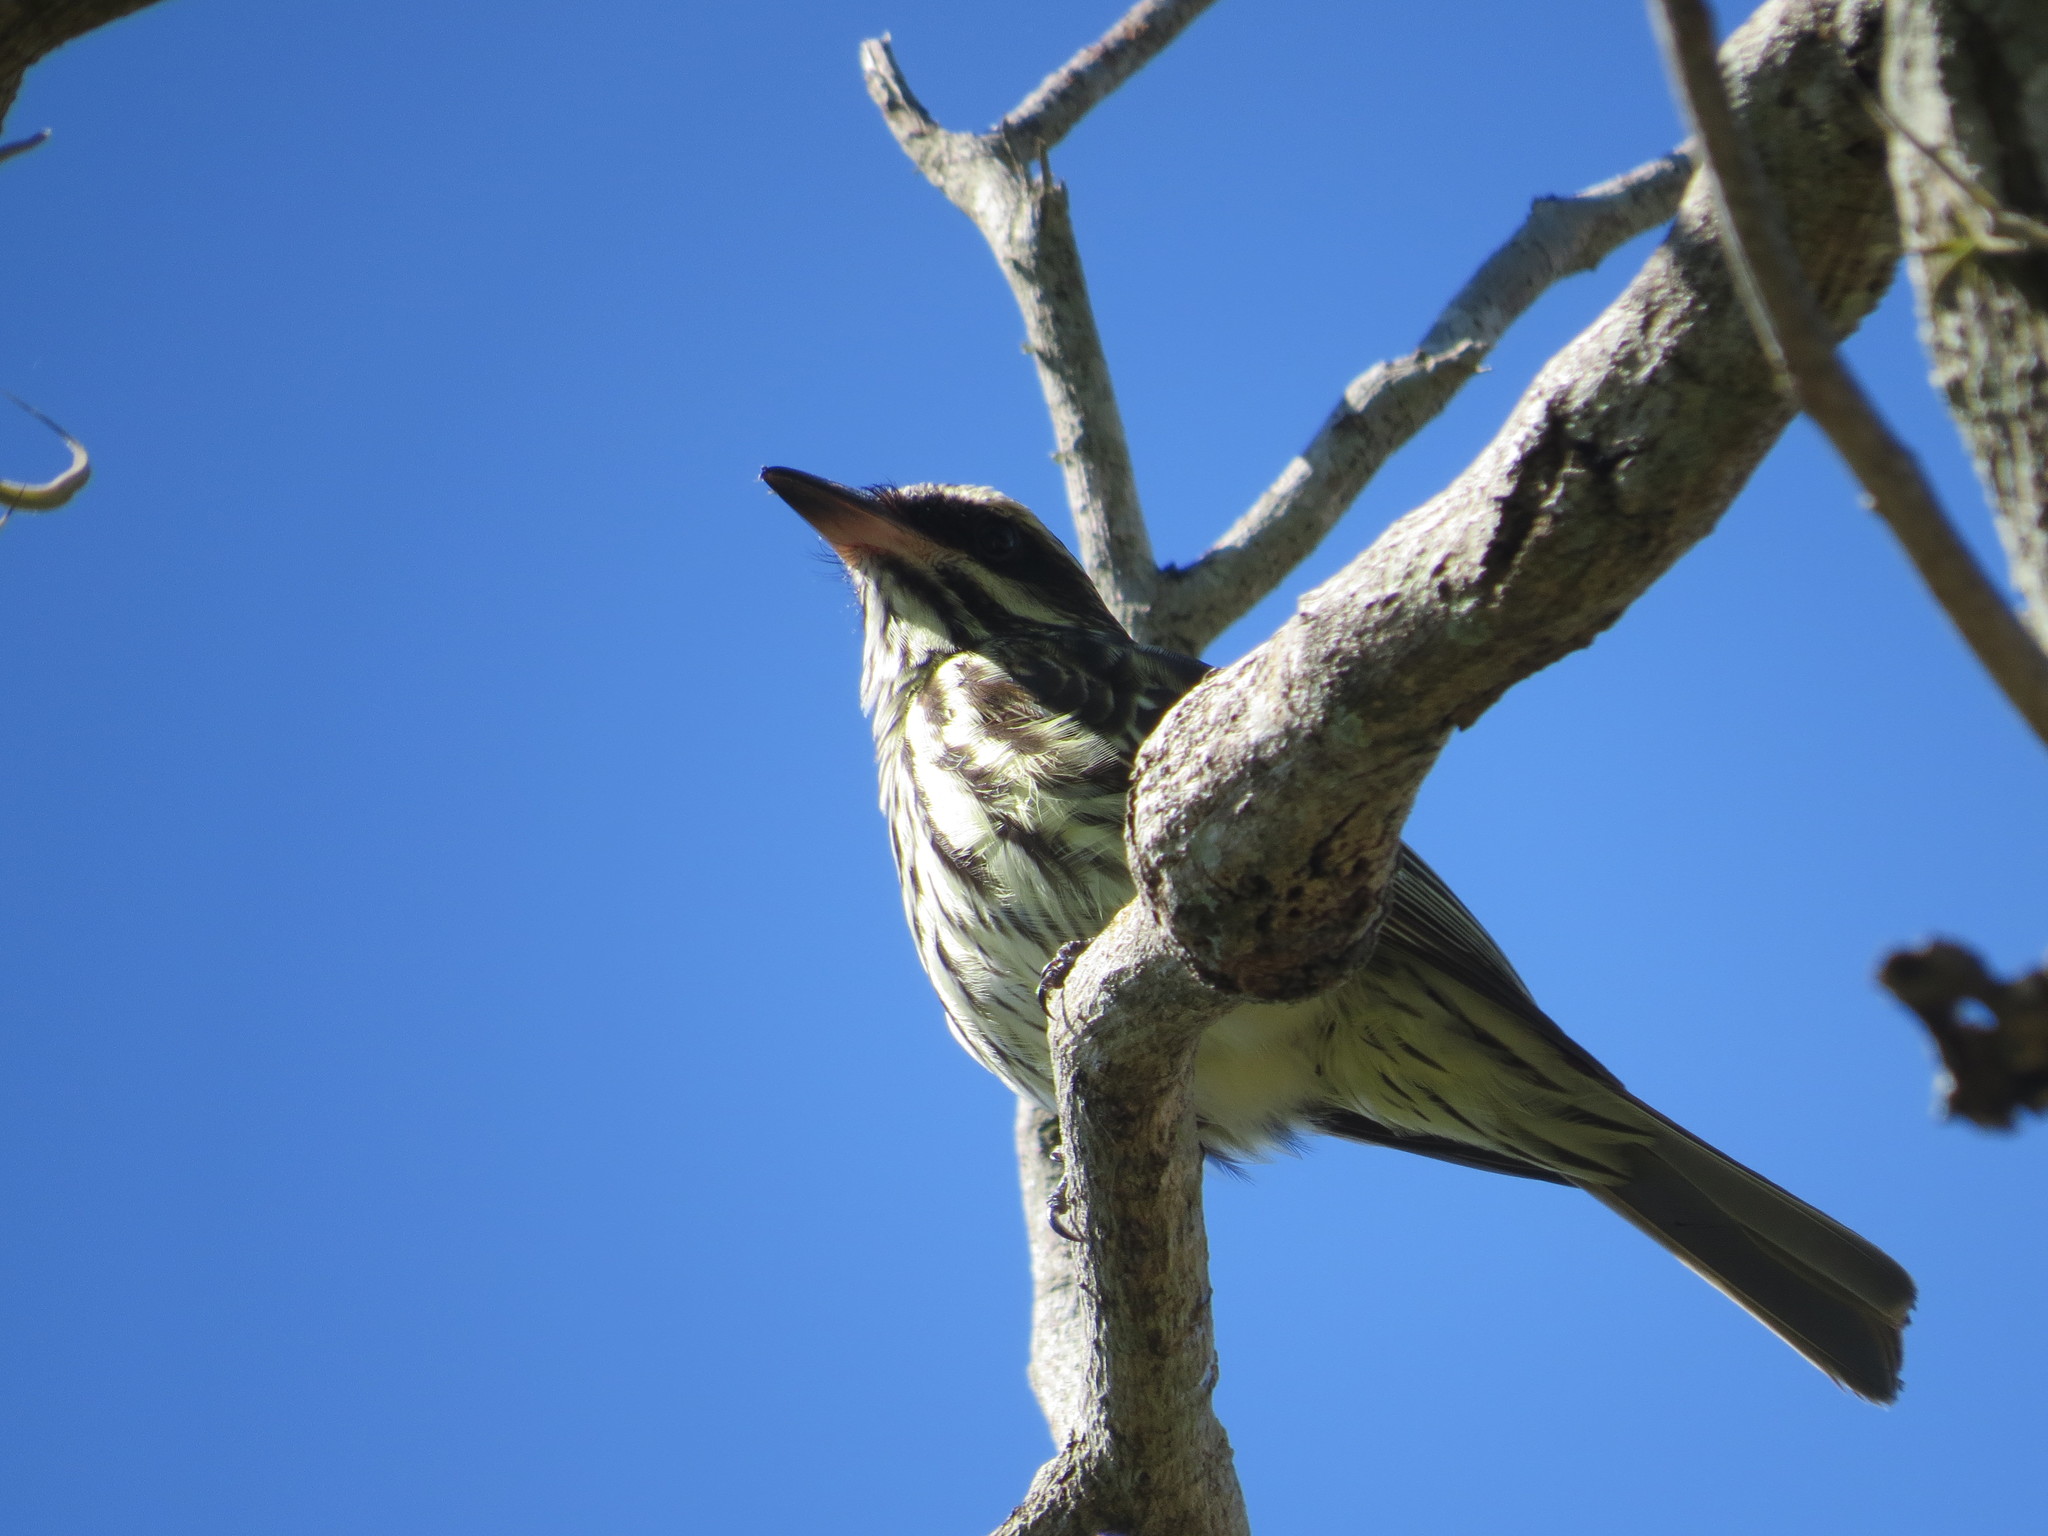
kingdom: Animalia
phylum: Chordata
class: Aves
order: Passeriformes
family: Tyrannidae
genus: Myiodynastes
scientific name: Myiodynastes maculatus
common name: Streaked flycatcher
